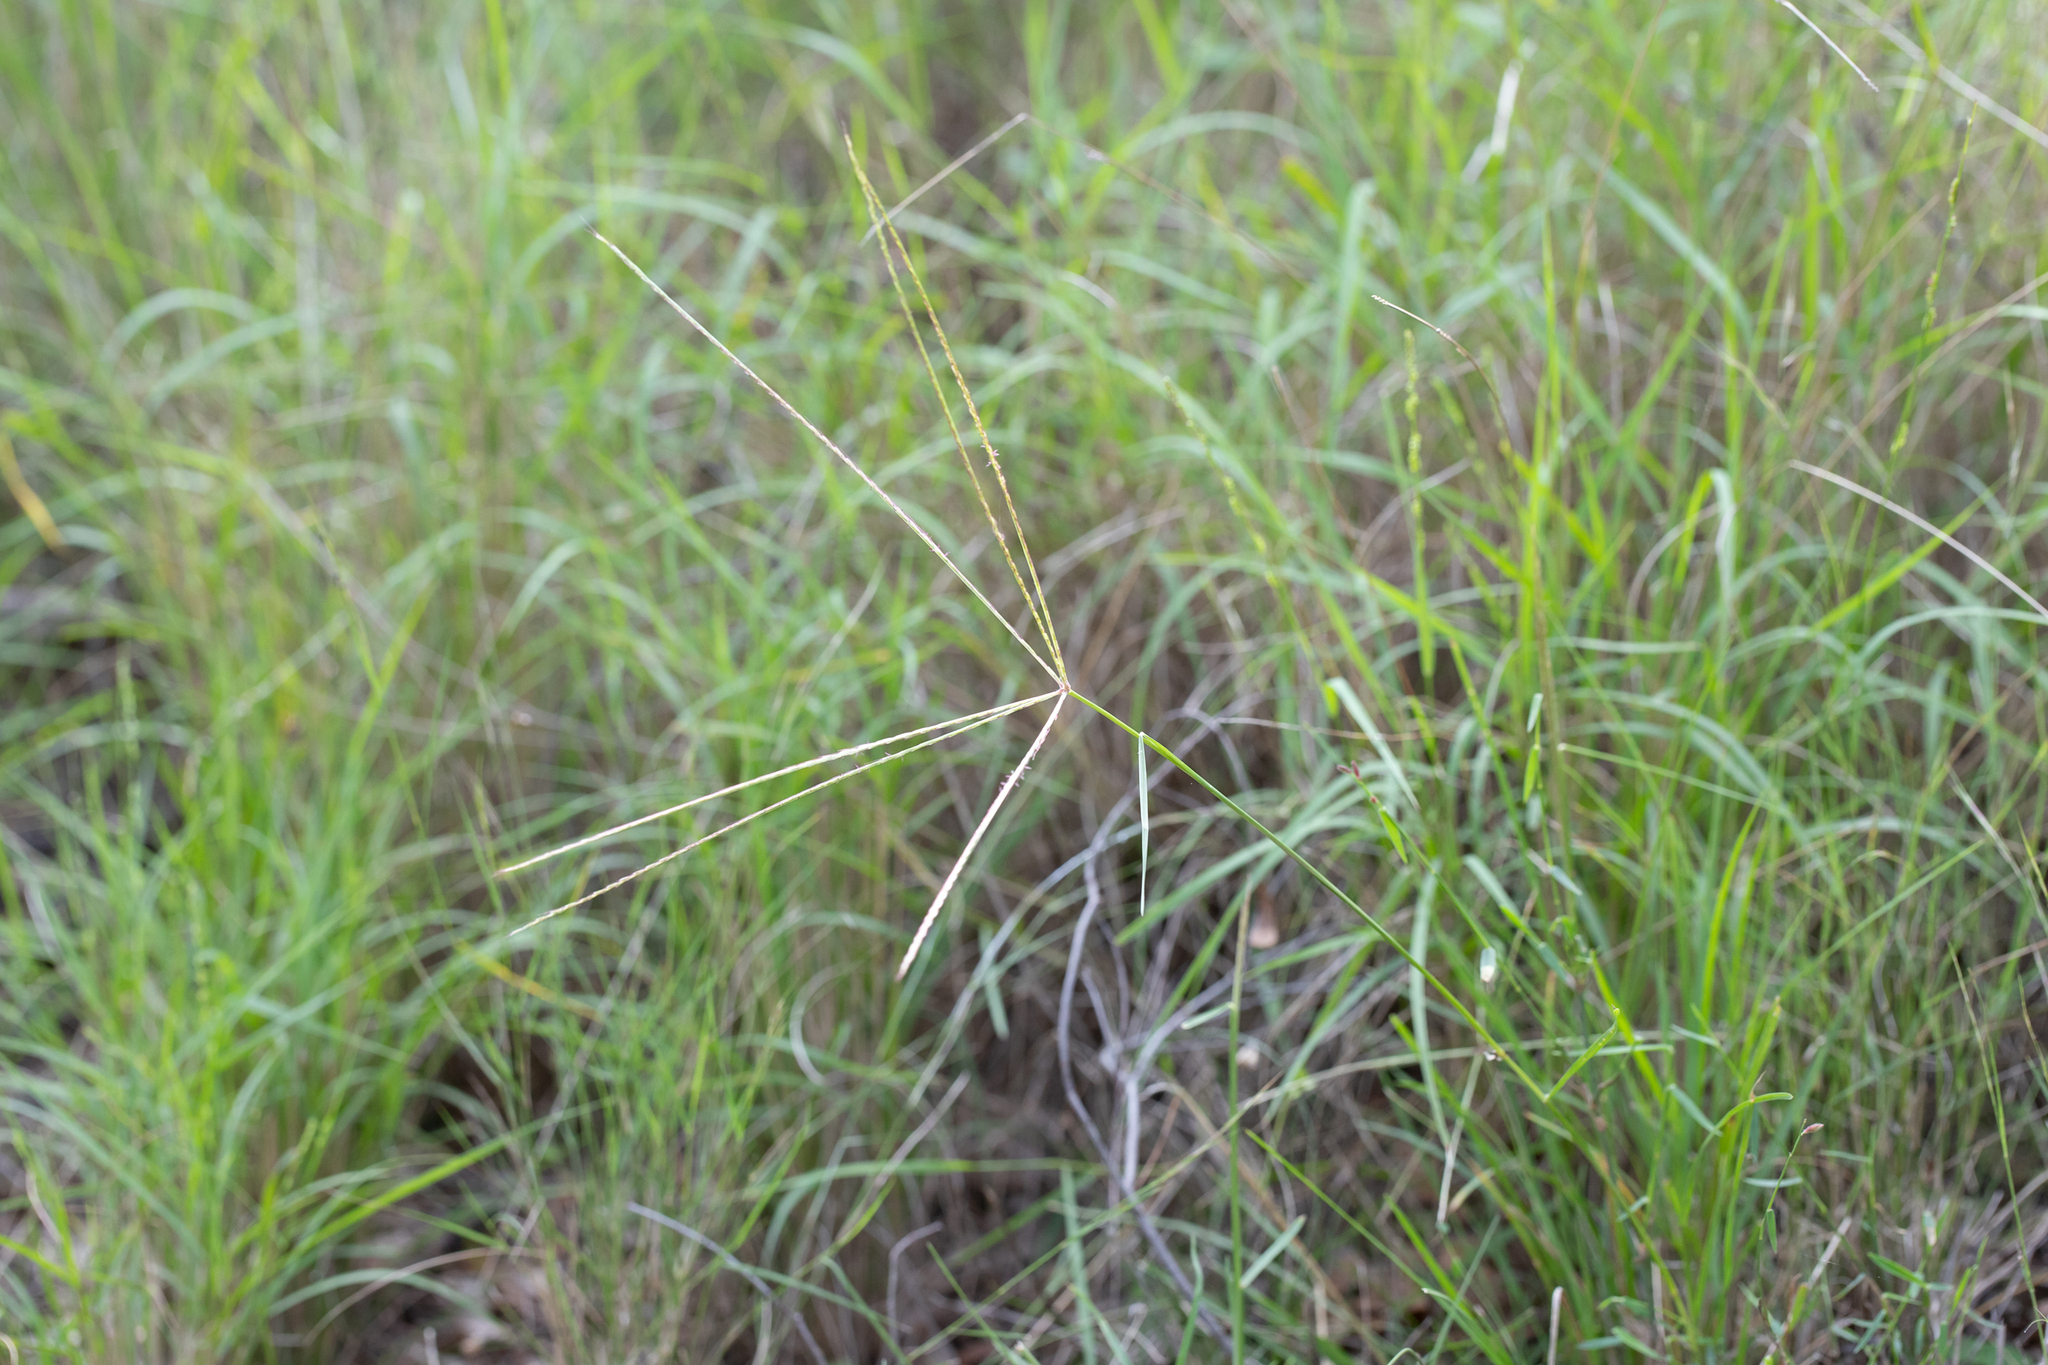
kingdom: Plantae
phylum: Tracheophyta
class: Liliopsida
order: Poales
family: Poaceae
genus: Chloris
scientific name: Chloris divaricata
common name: Spreading windmill grass
